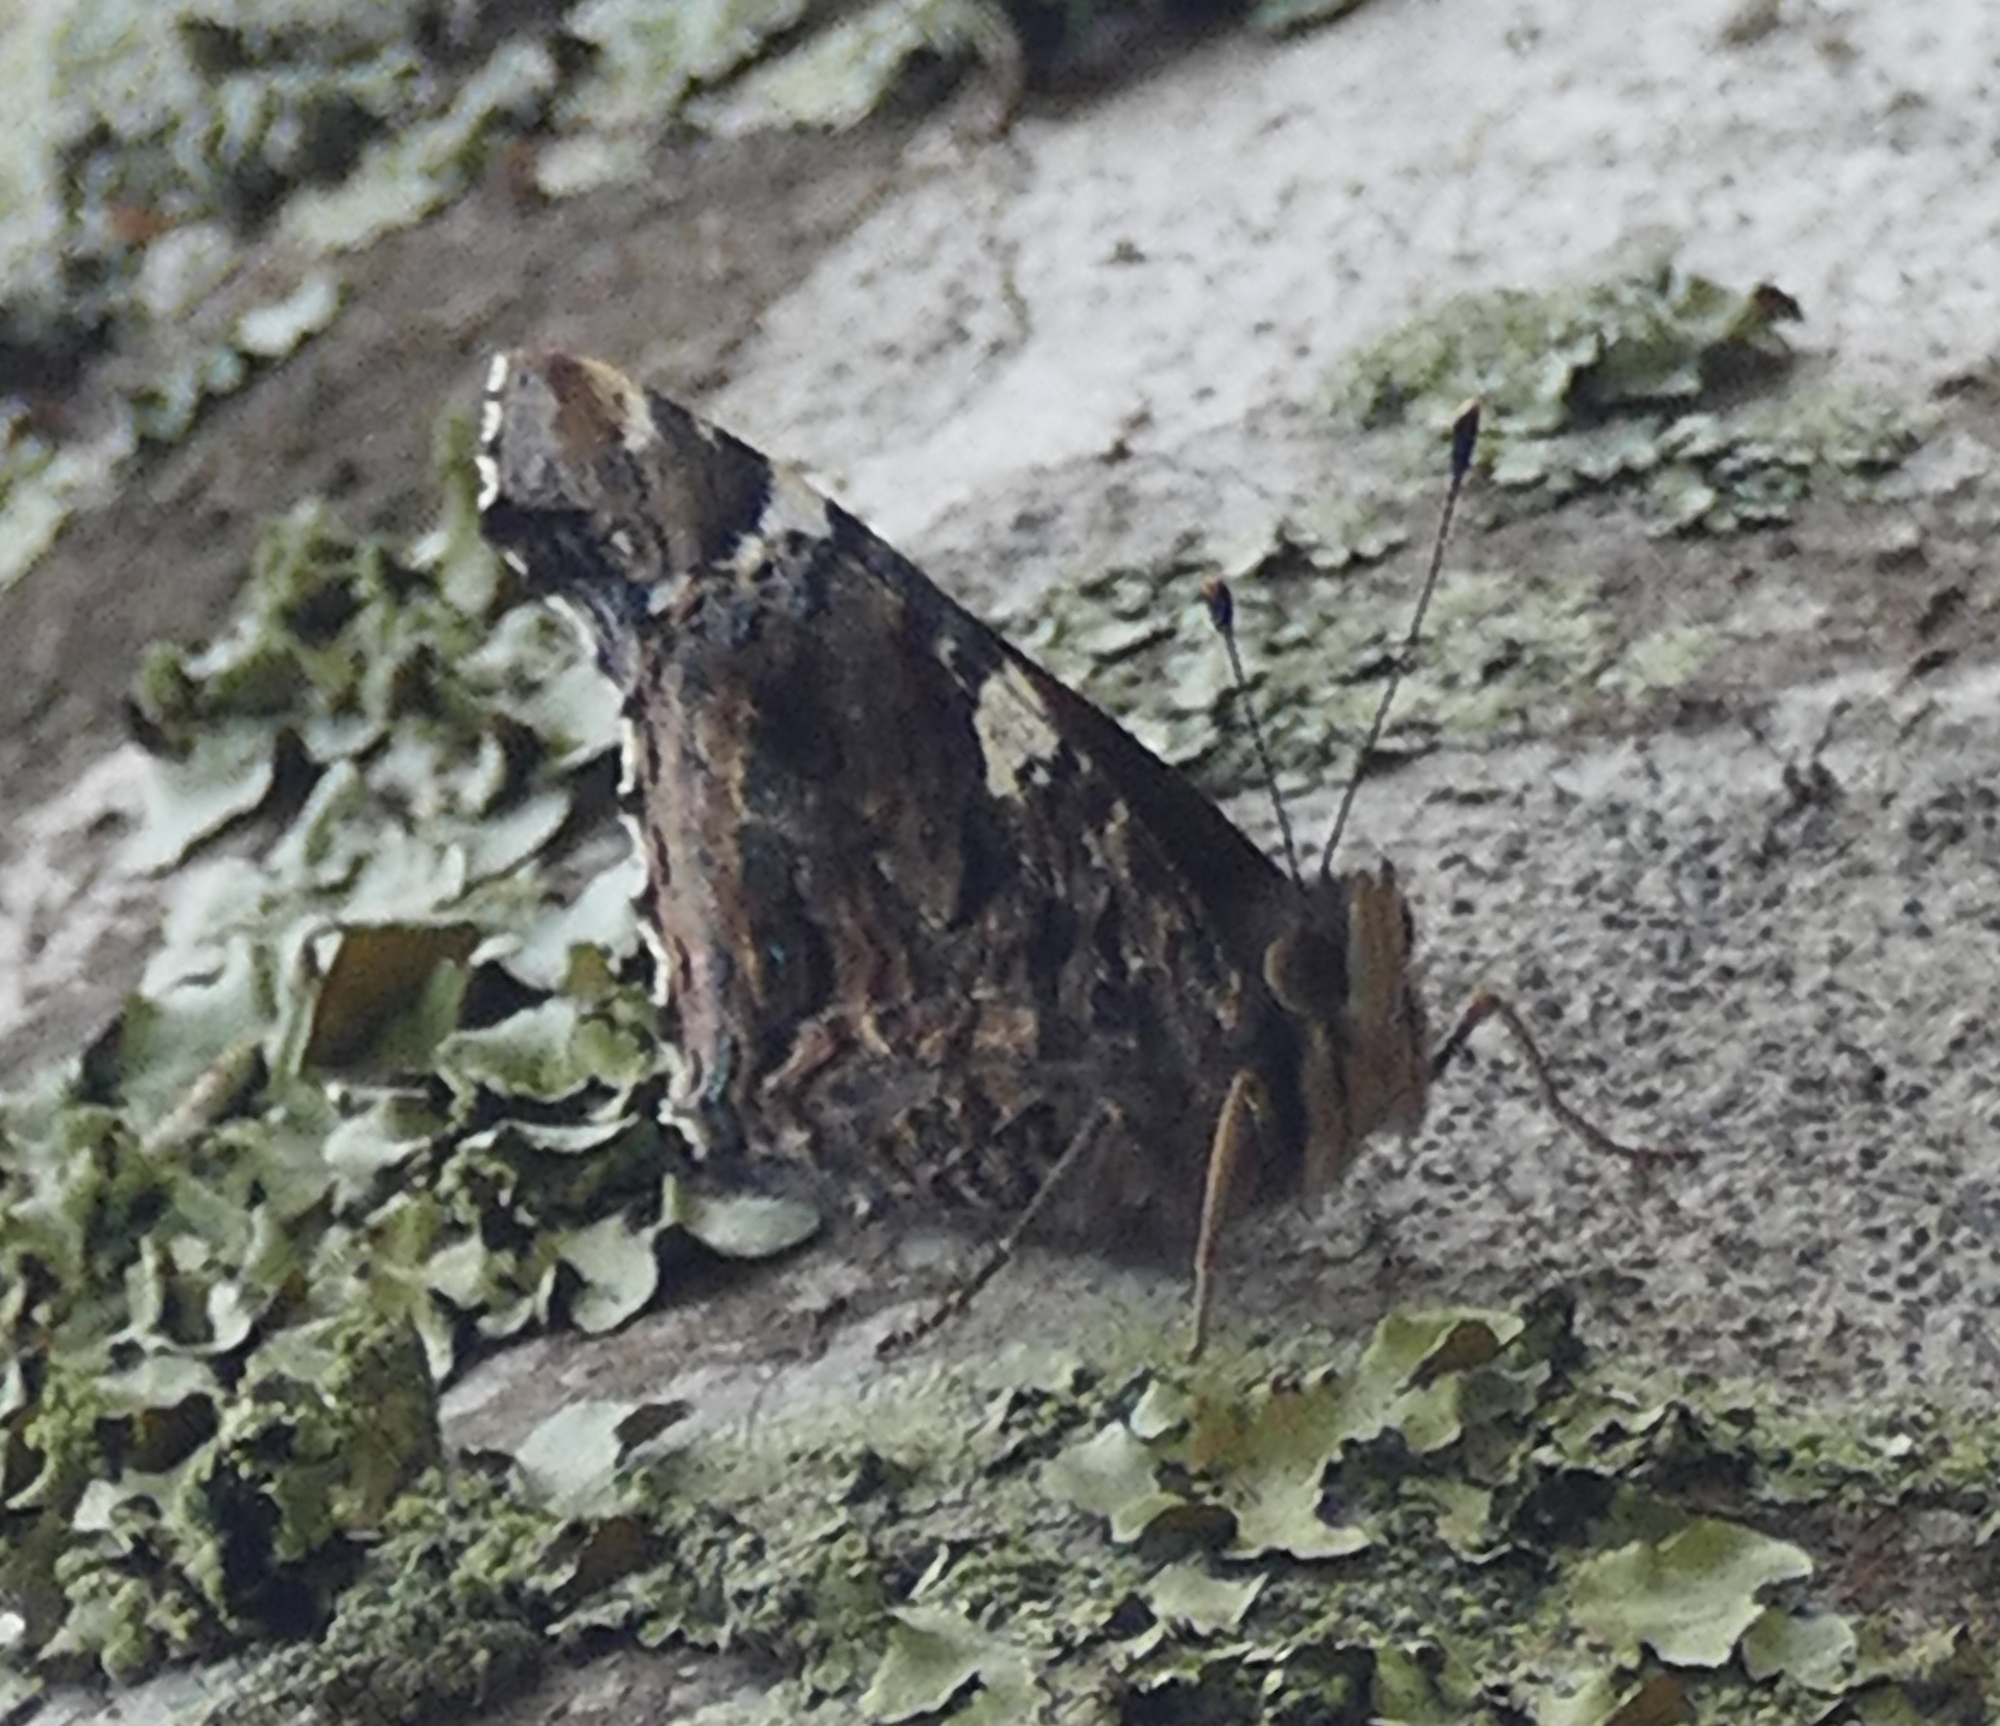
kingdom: Animalia
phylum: Arthropoda
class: Insecta
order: Lepidoptera
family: Nymphalidae
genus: Vanessa
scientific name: Vanessa atalanta
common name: Red admiral
